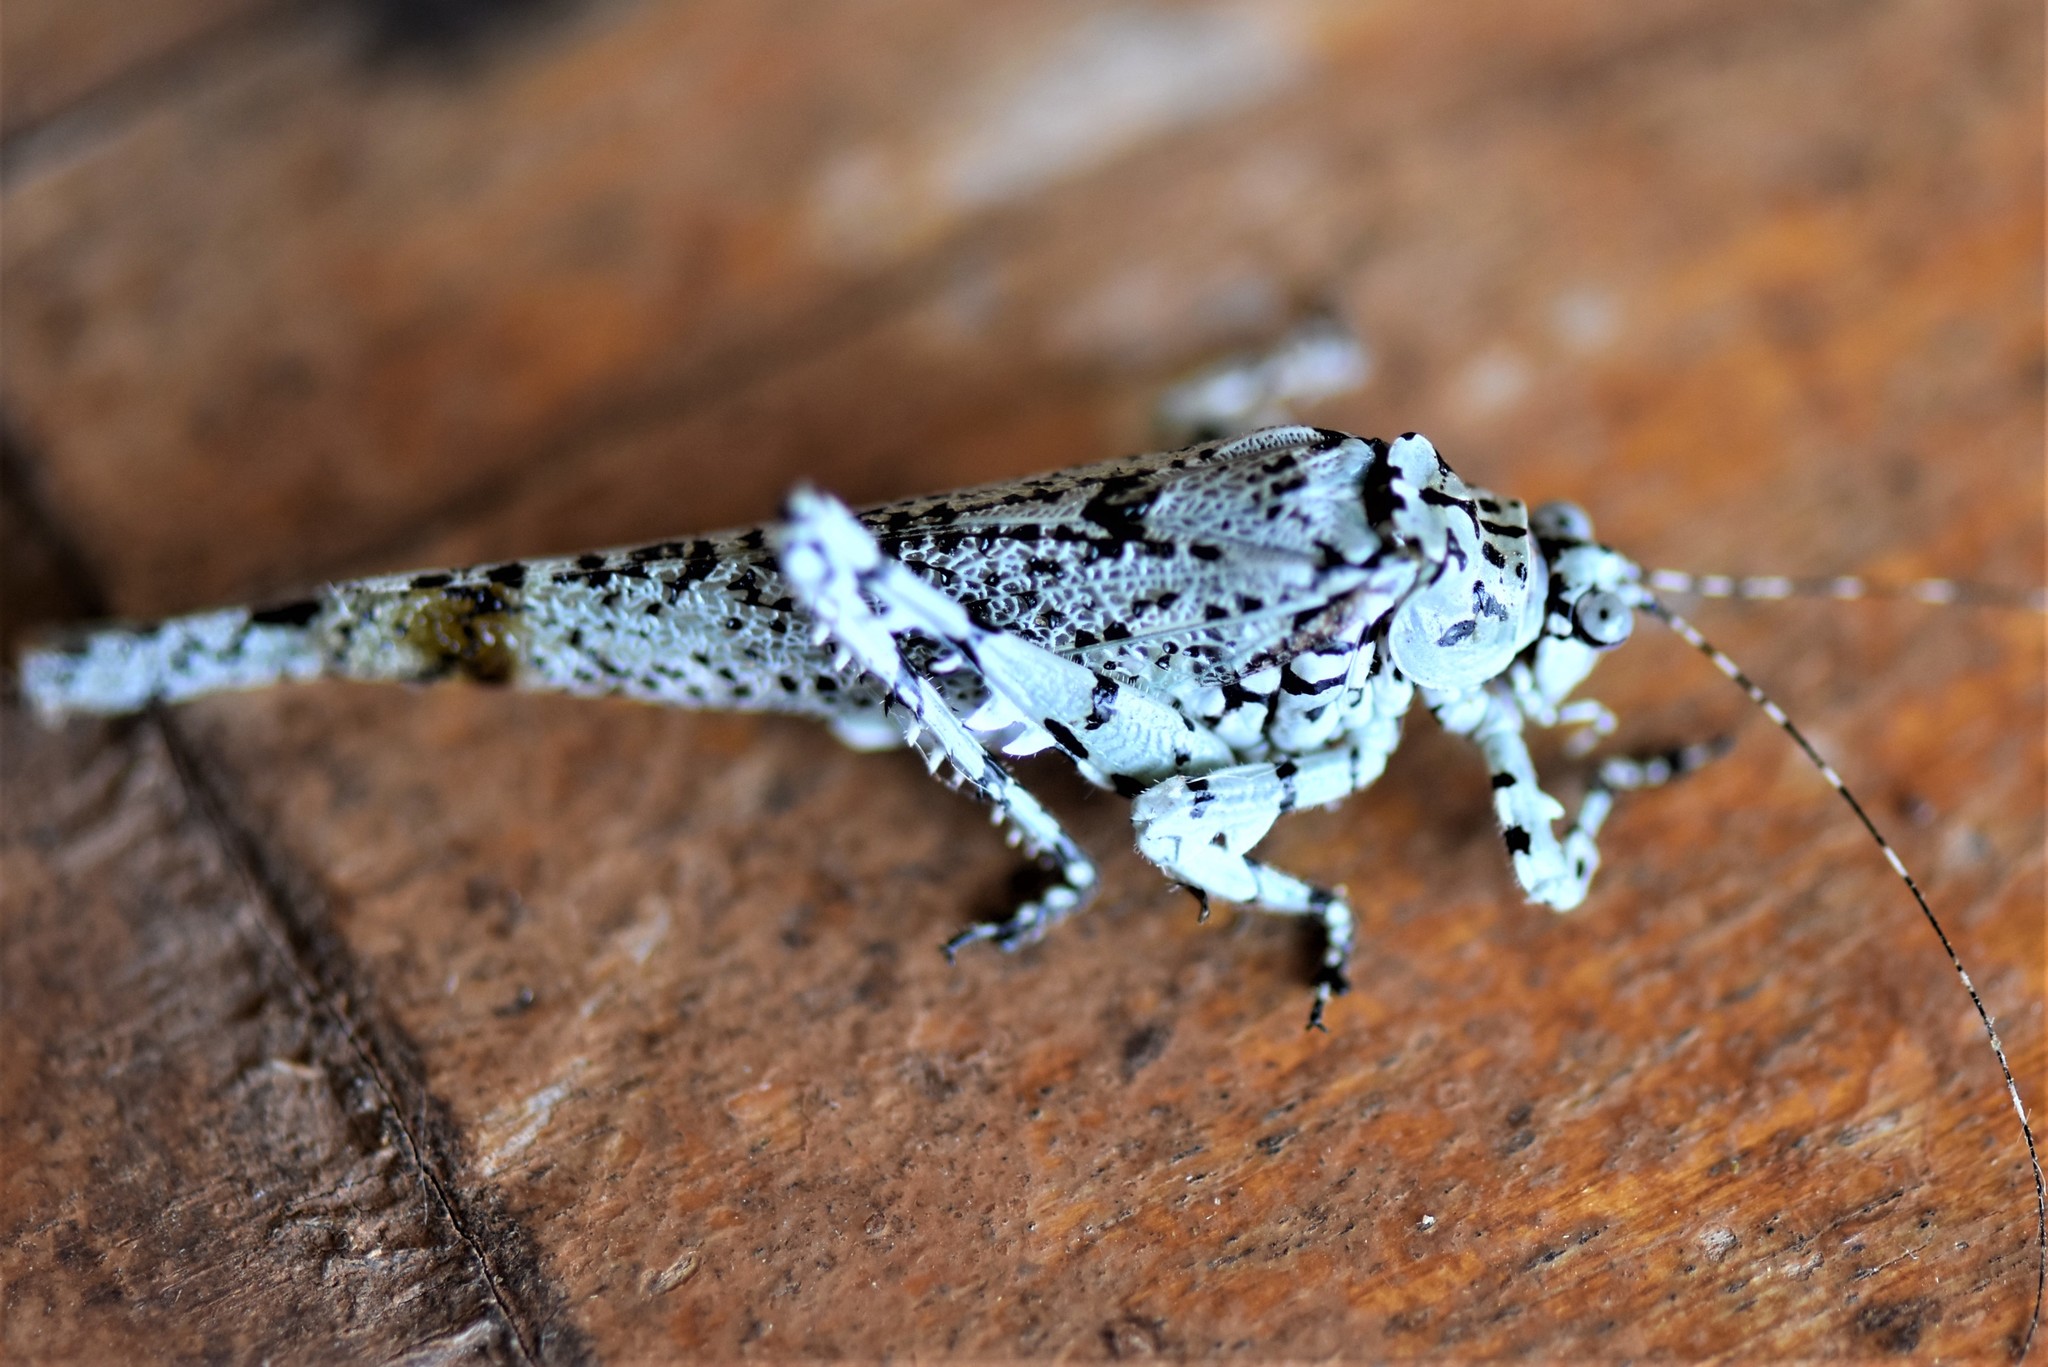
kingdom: Animalia
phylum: Arthropoda
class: Insecta
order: Orthoptera
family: Tettigoniidae
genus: Dissonulichen
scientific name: Dissonulichen hebardi
